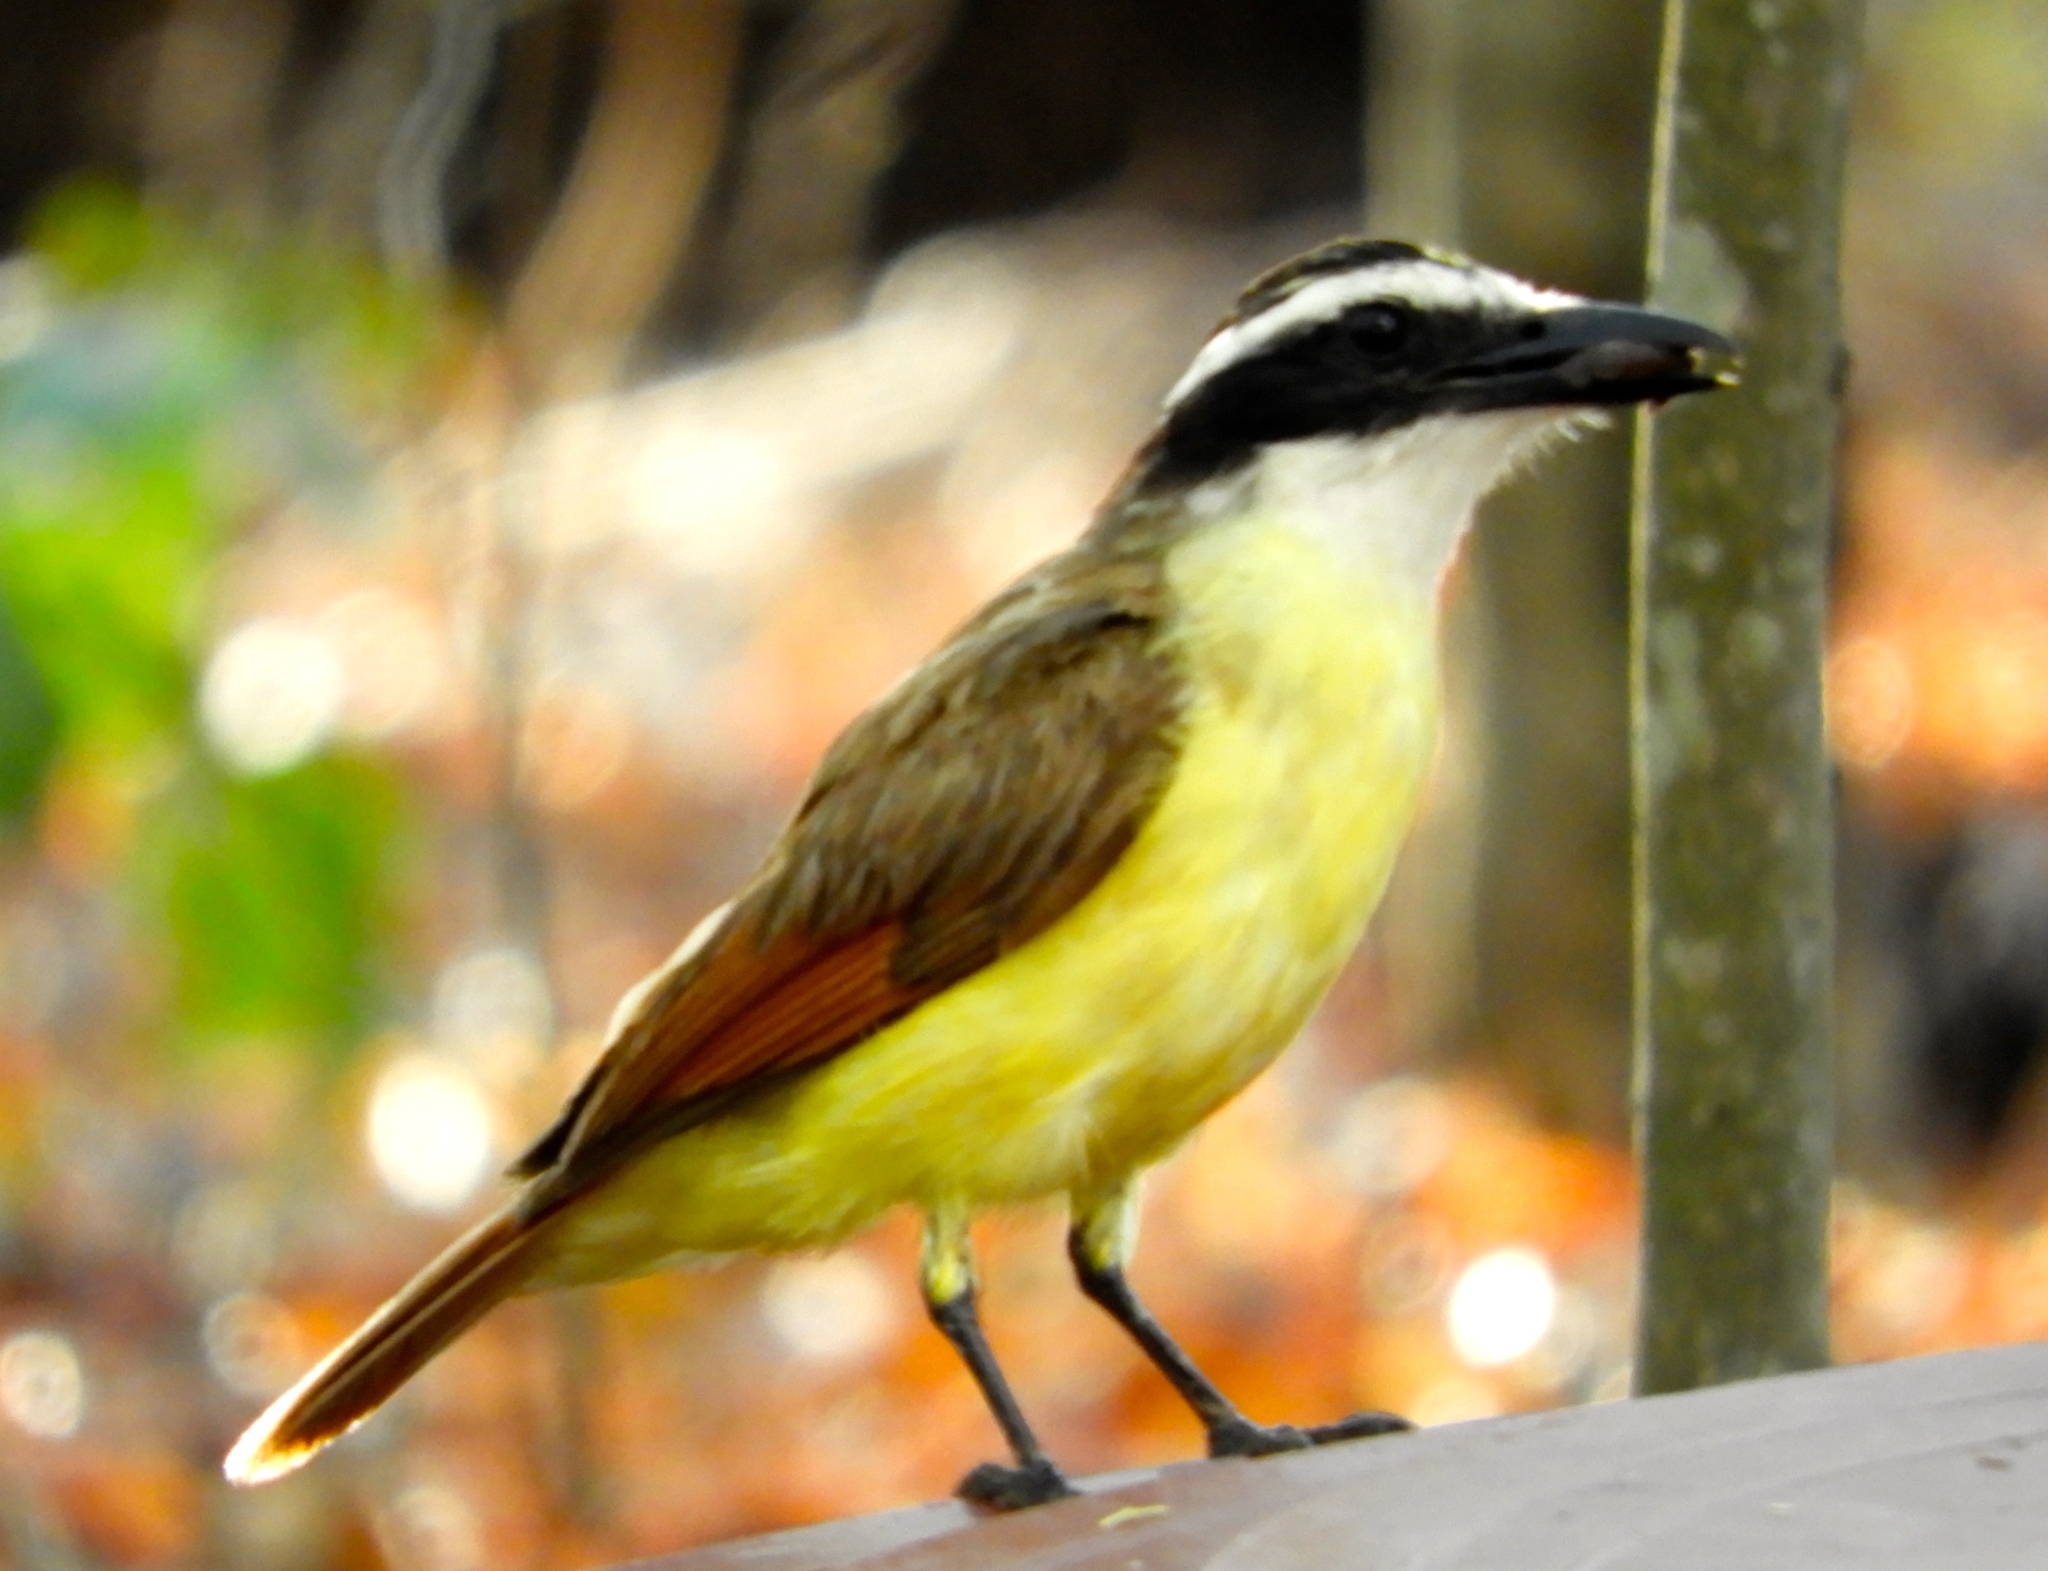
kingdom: Animalia
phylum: Chordata
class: Aves
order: Passeriformes
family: Tyrannidae
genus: Pitangus
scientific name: Pitangus sulphuratus
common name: Great kiskadee
